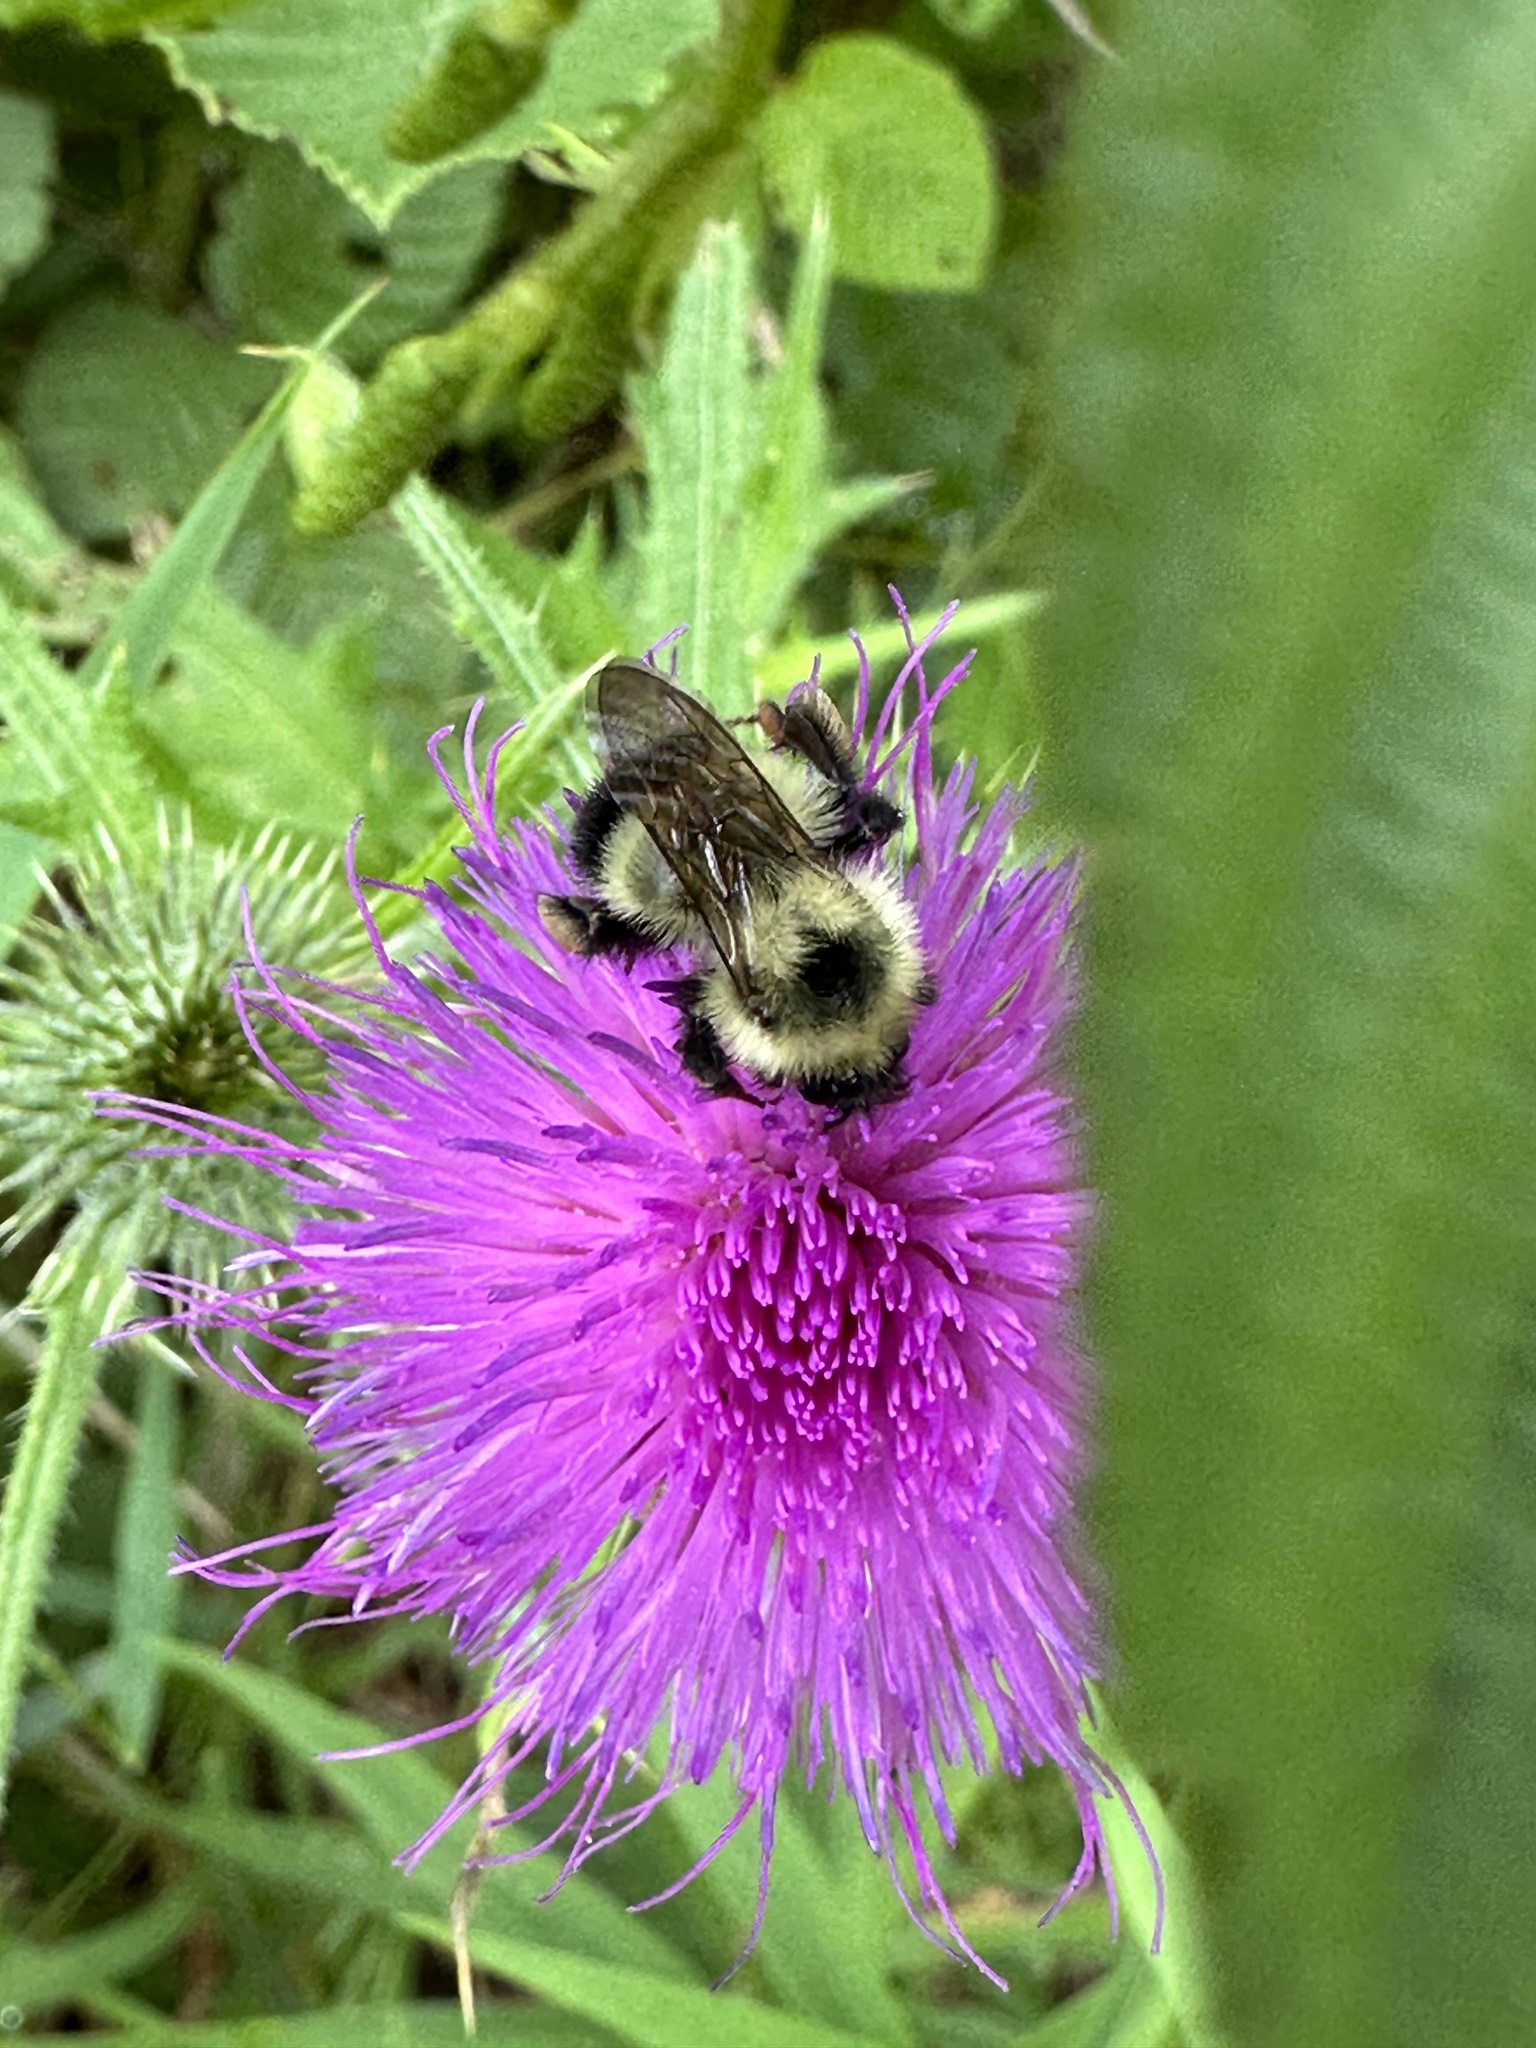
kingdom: Animalia
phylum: Arthropoda
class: Insecta
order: Hymenoptera
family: Apidae
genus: Pyrobombus
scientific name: Pyrobombus
